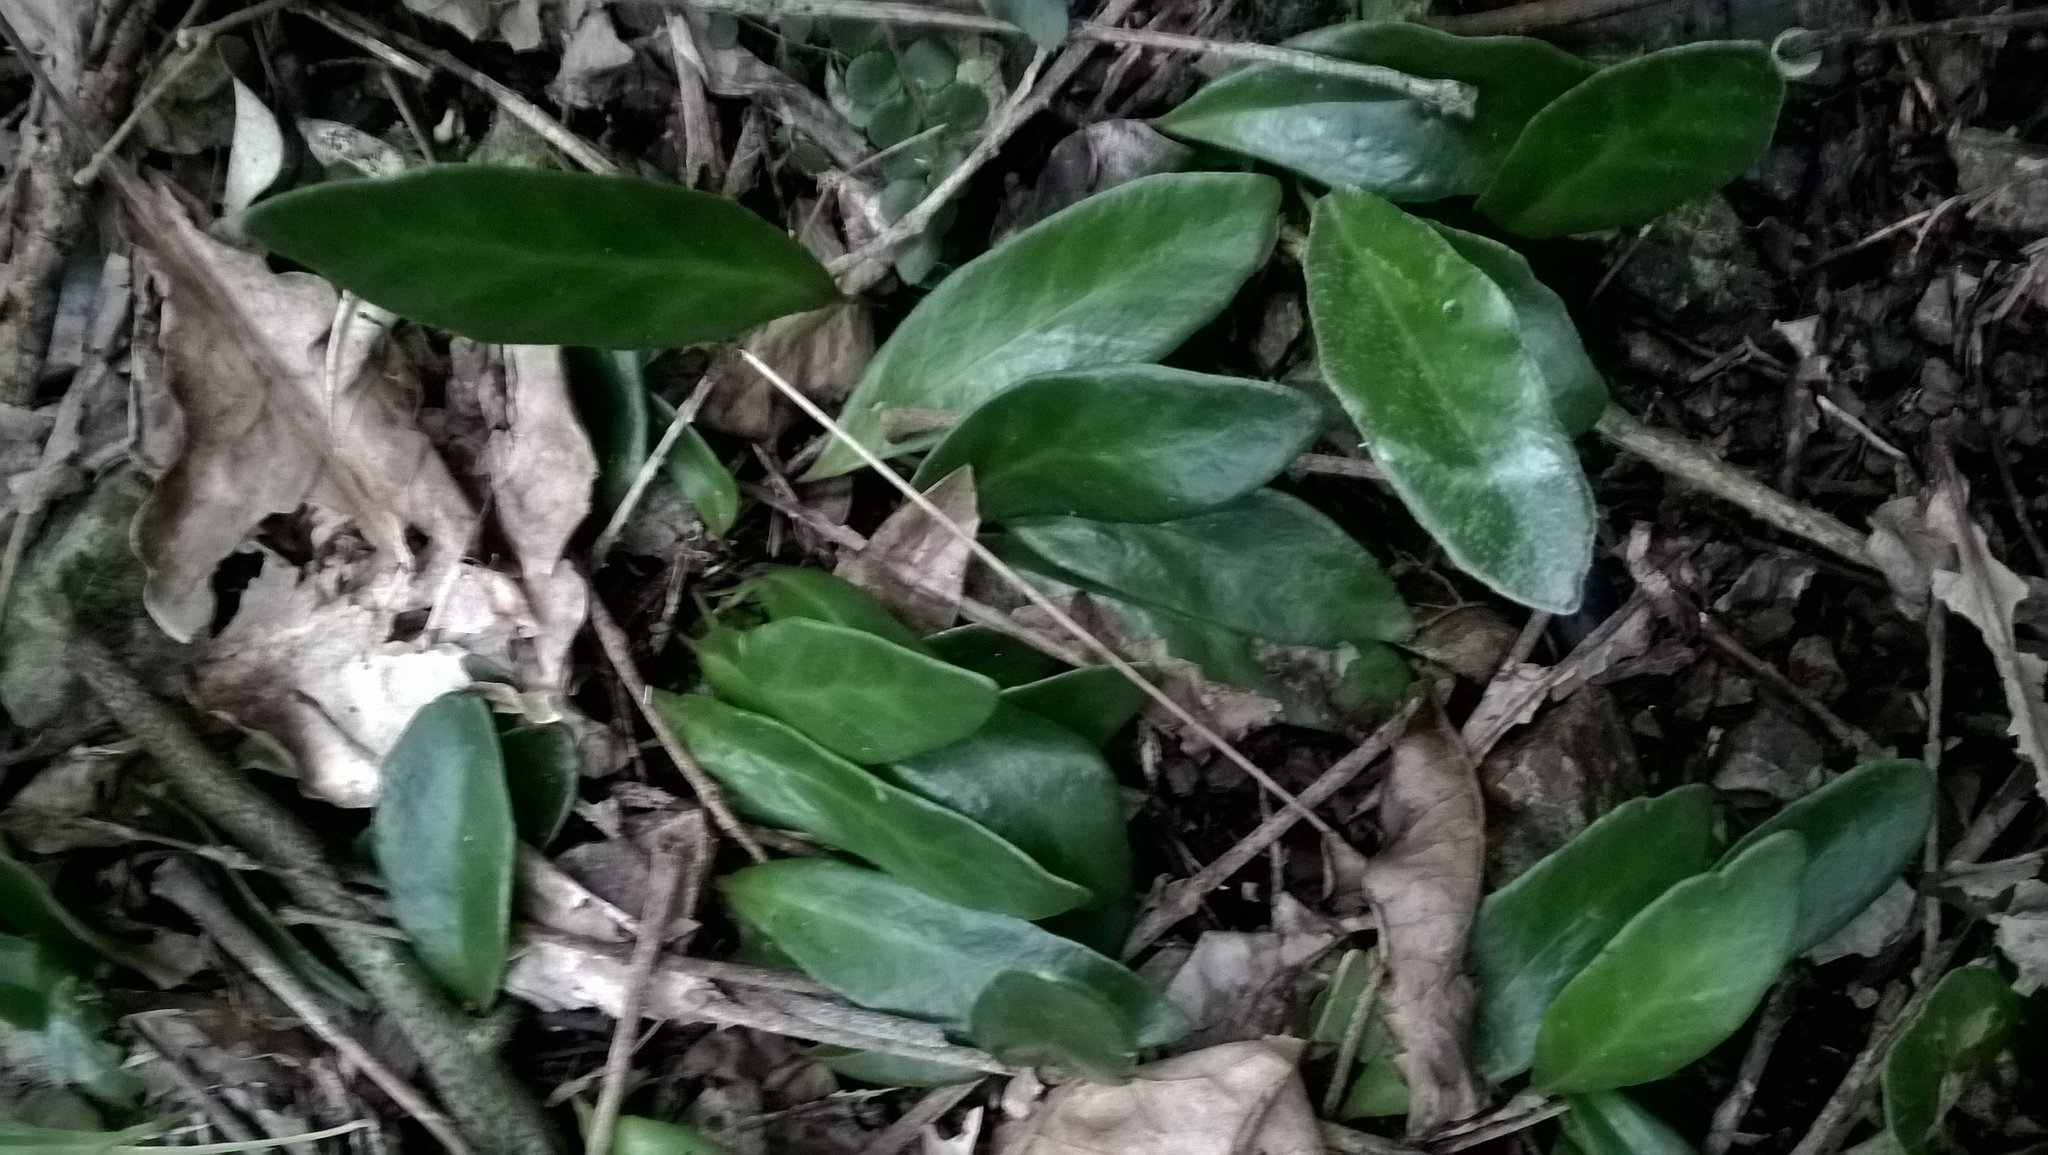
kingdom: Plantae
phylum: Tracheophyta
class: Polypodiopsida
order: Polypodiales
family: Polypodiaceae
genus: Pyrrosia
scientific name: Pyrrosia eleagnifolia
